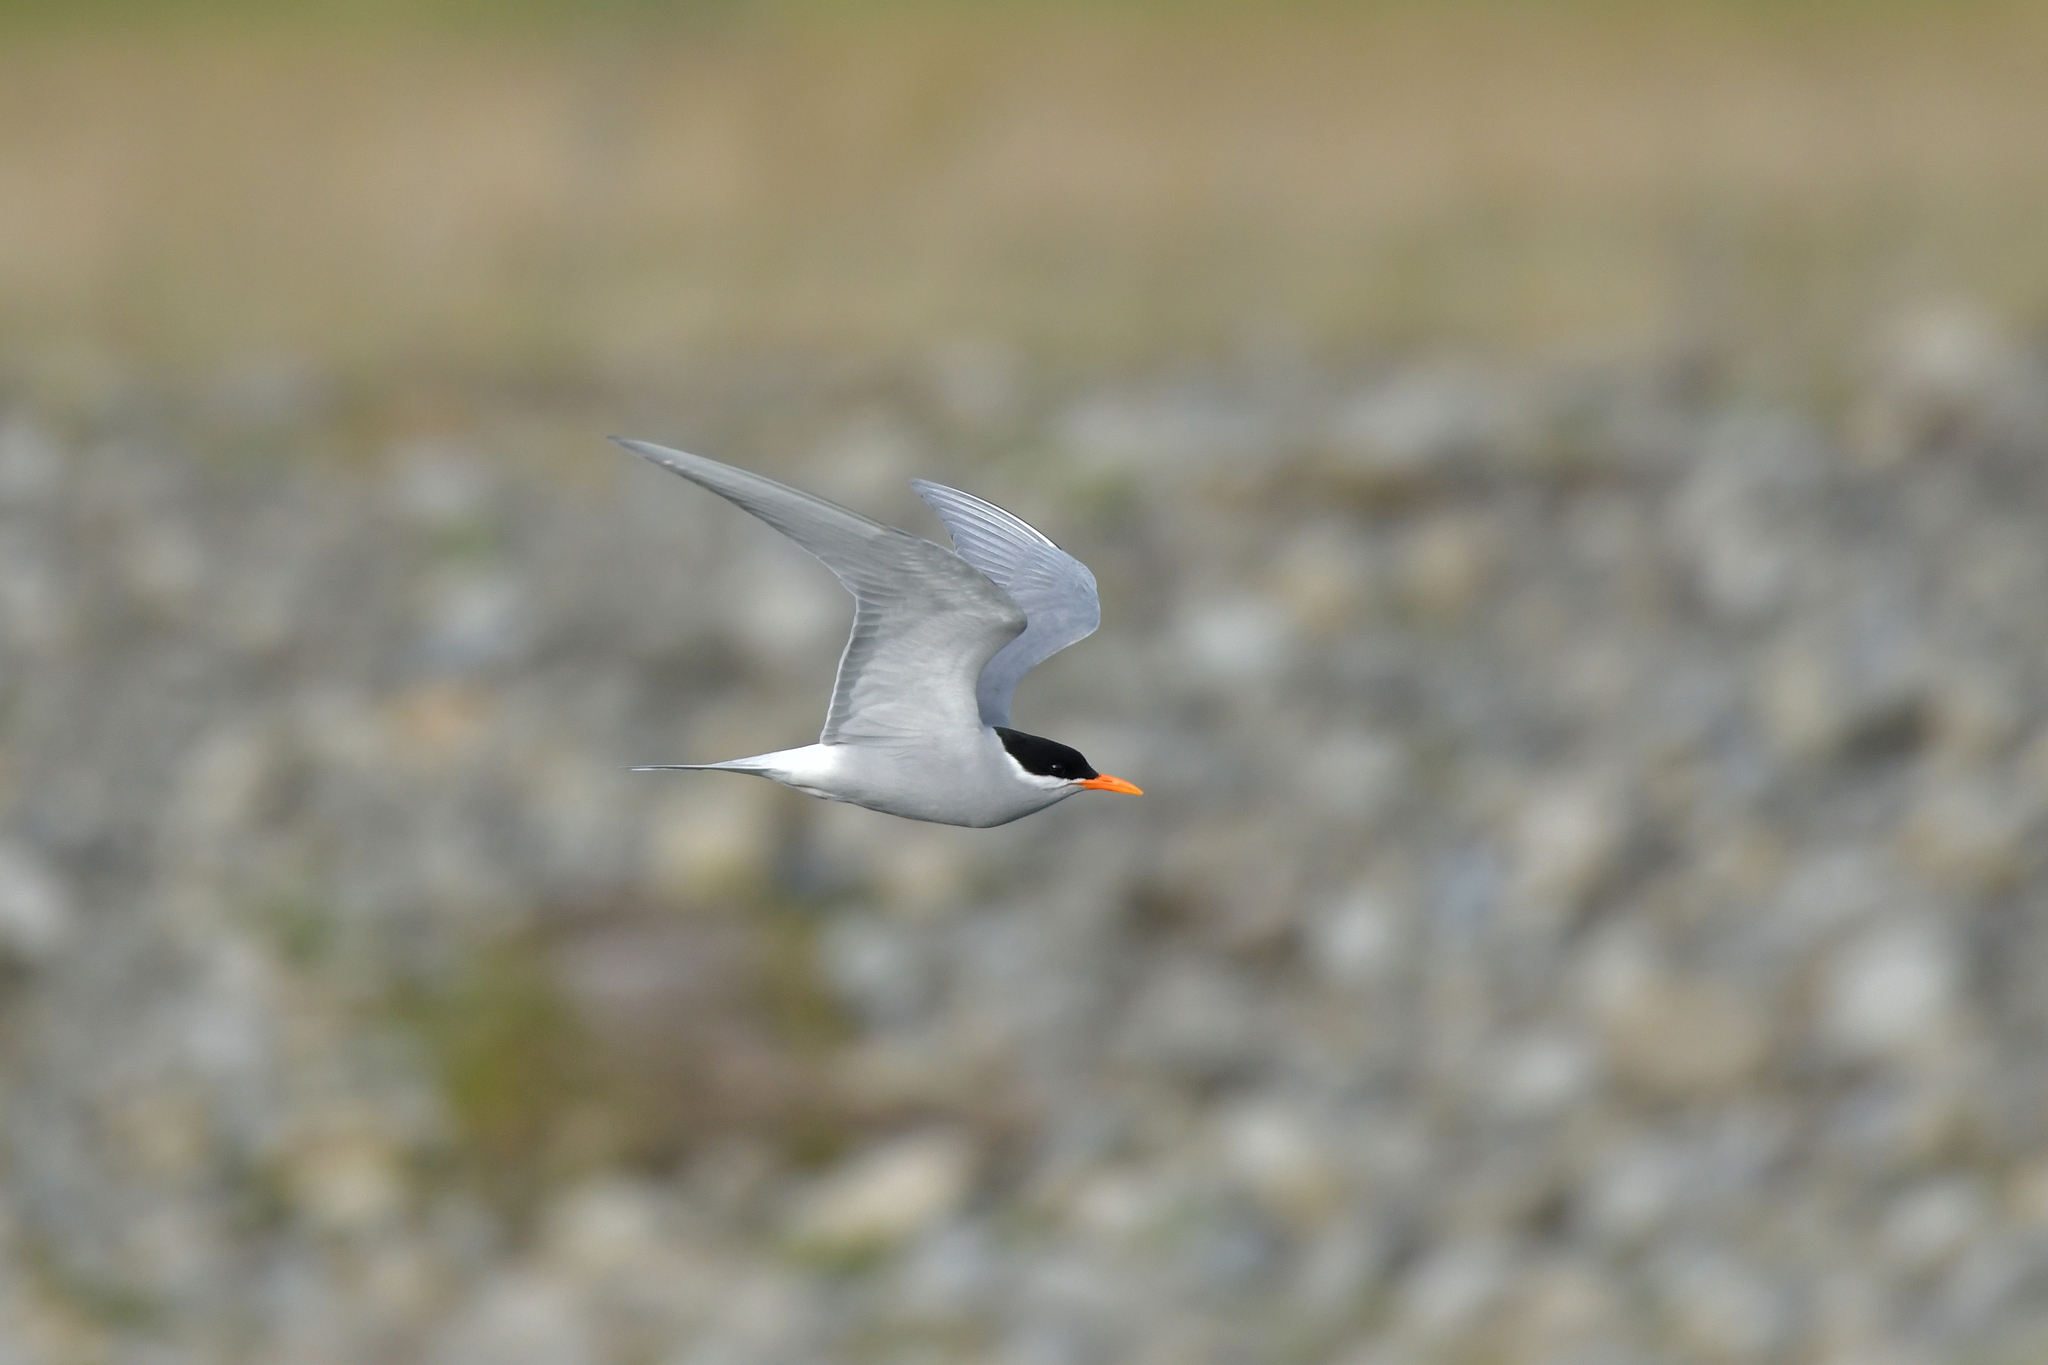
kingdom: Animalia
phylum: Chordata
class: Aves
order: Charadriiformes
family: Laridae
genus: Chlidonias
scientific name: Chlidonias albostriatus
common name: Black-fronted tern
